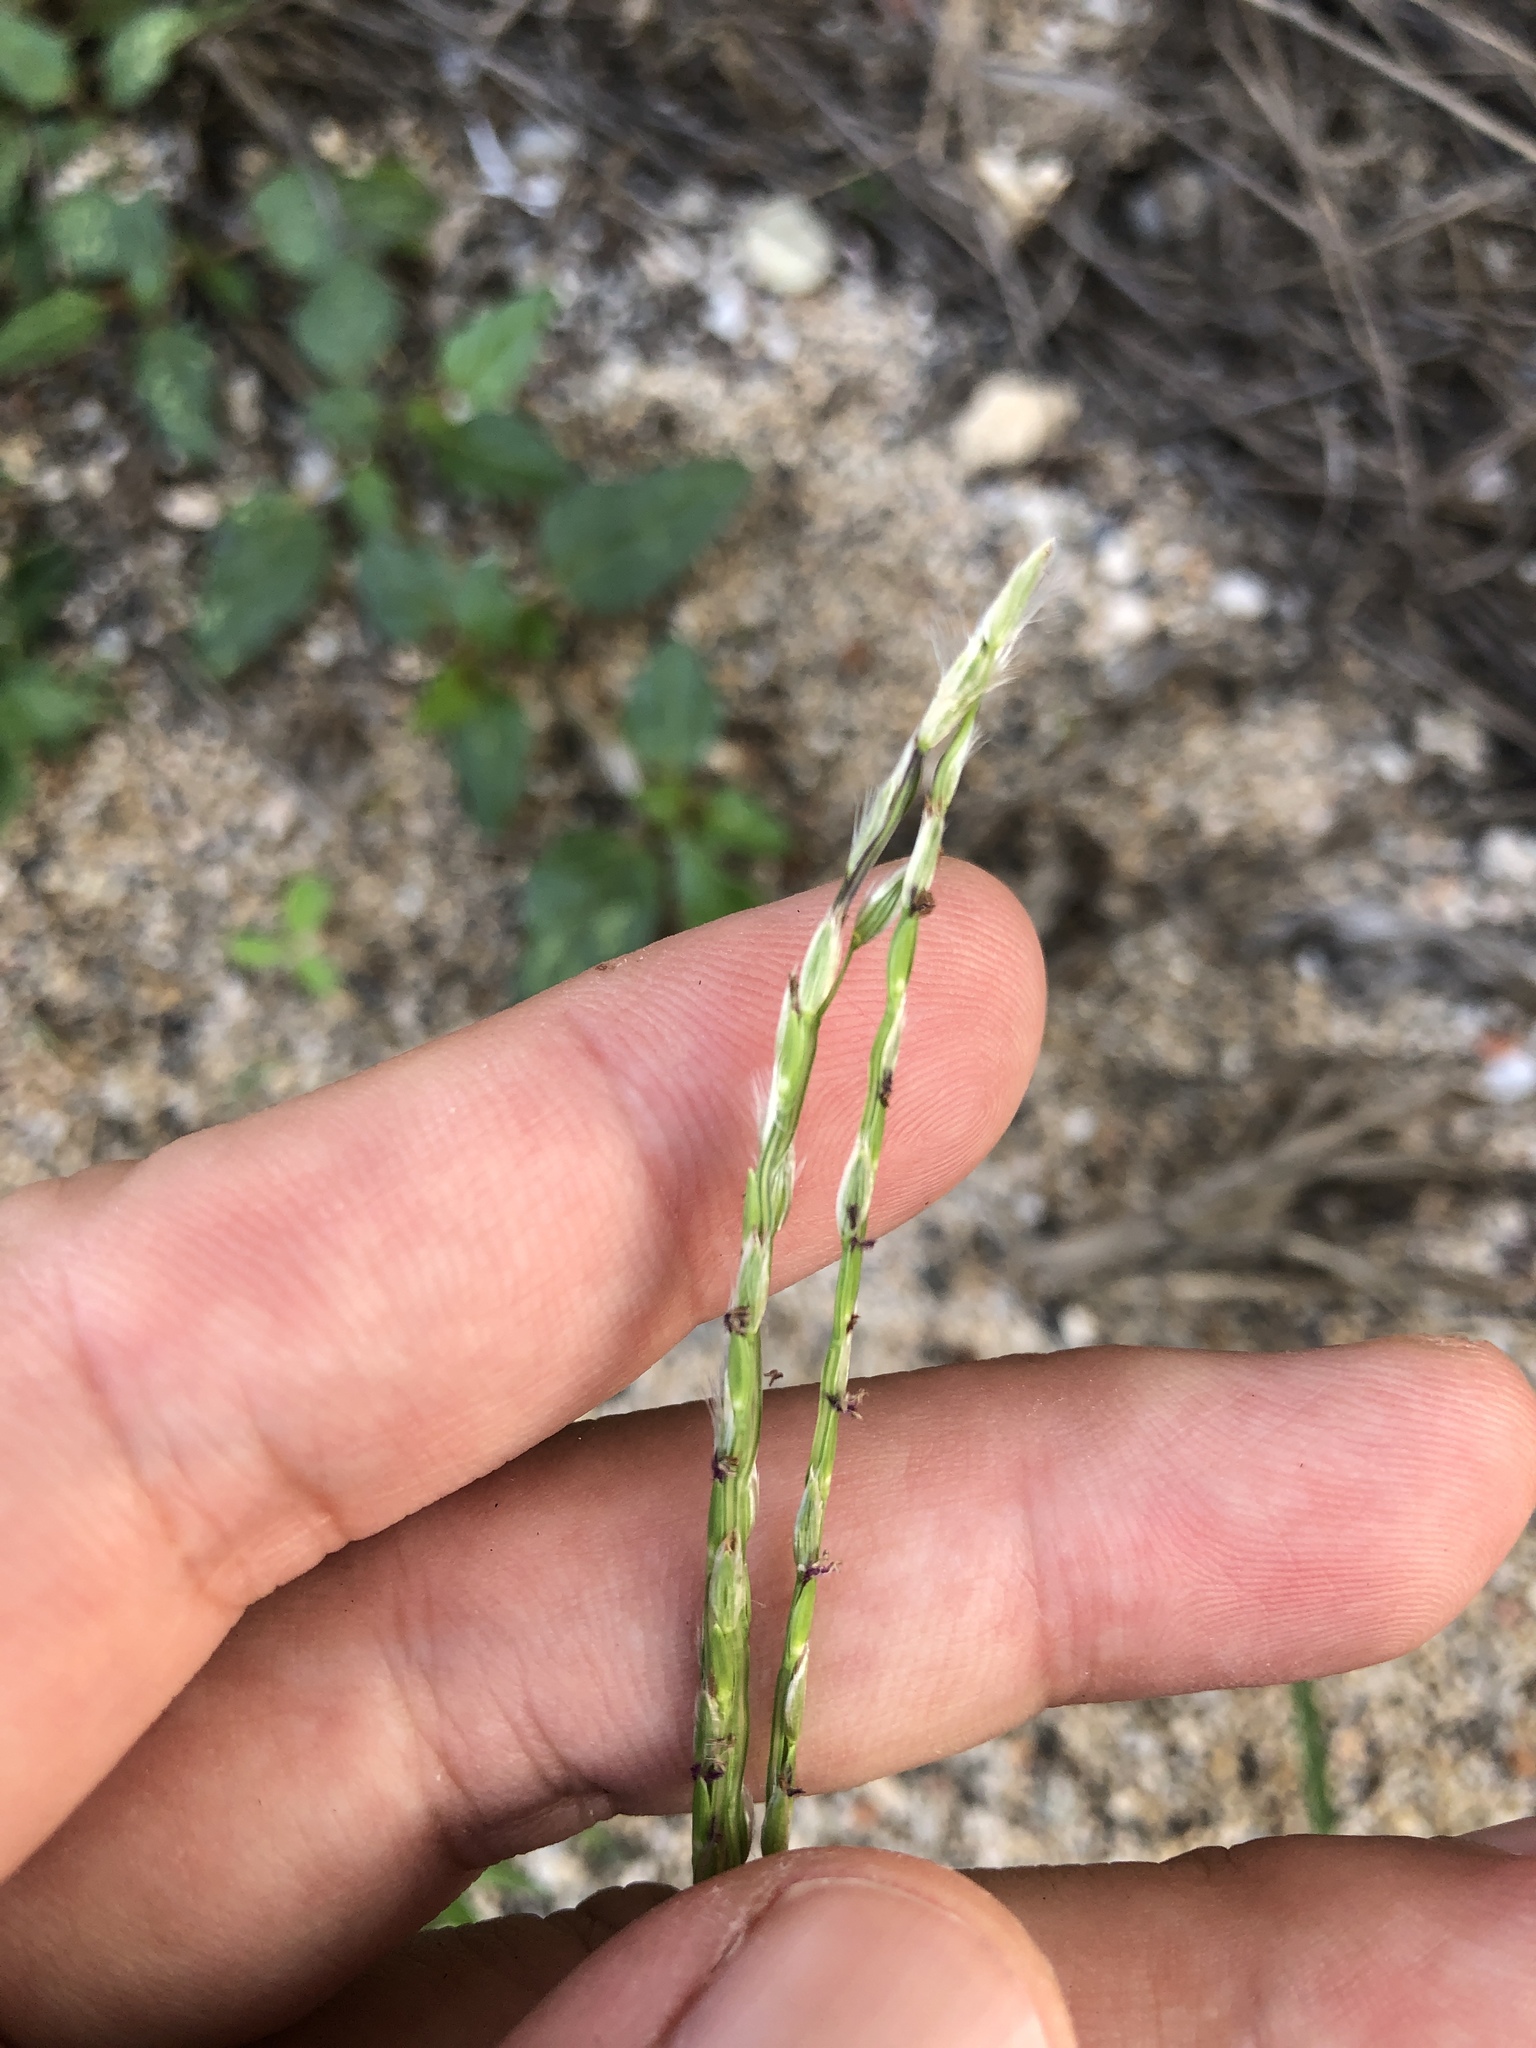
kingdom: Plantae
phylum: Tracheophyta
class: Liliopsida
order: Poales
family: Poaceae
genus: Digitaria
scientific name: Digitaria heterantha
